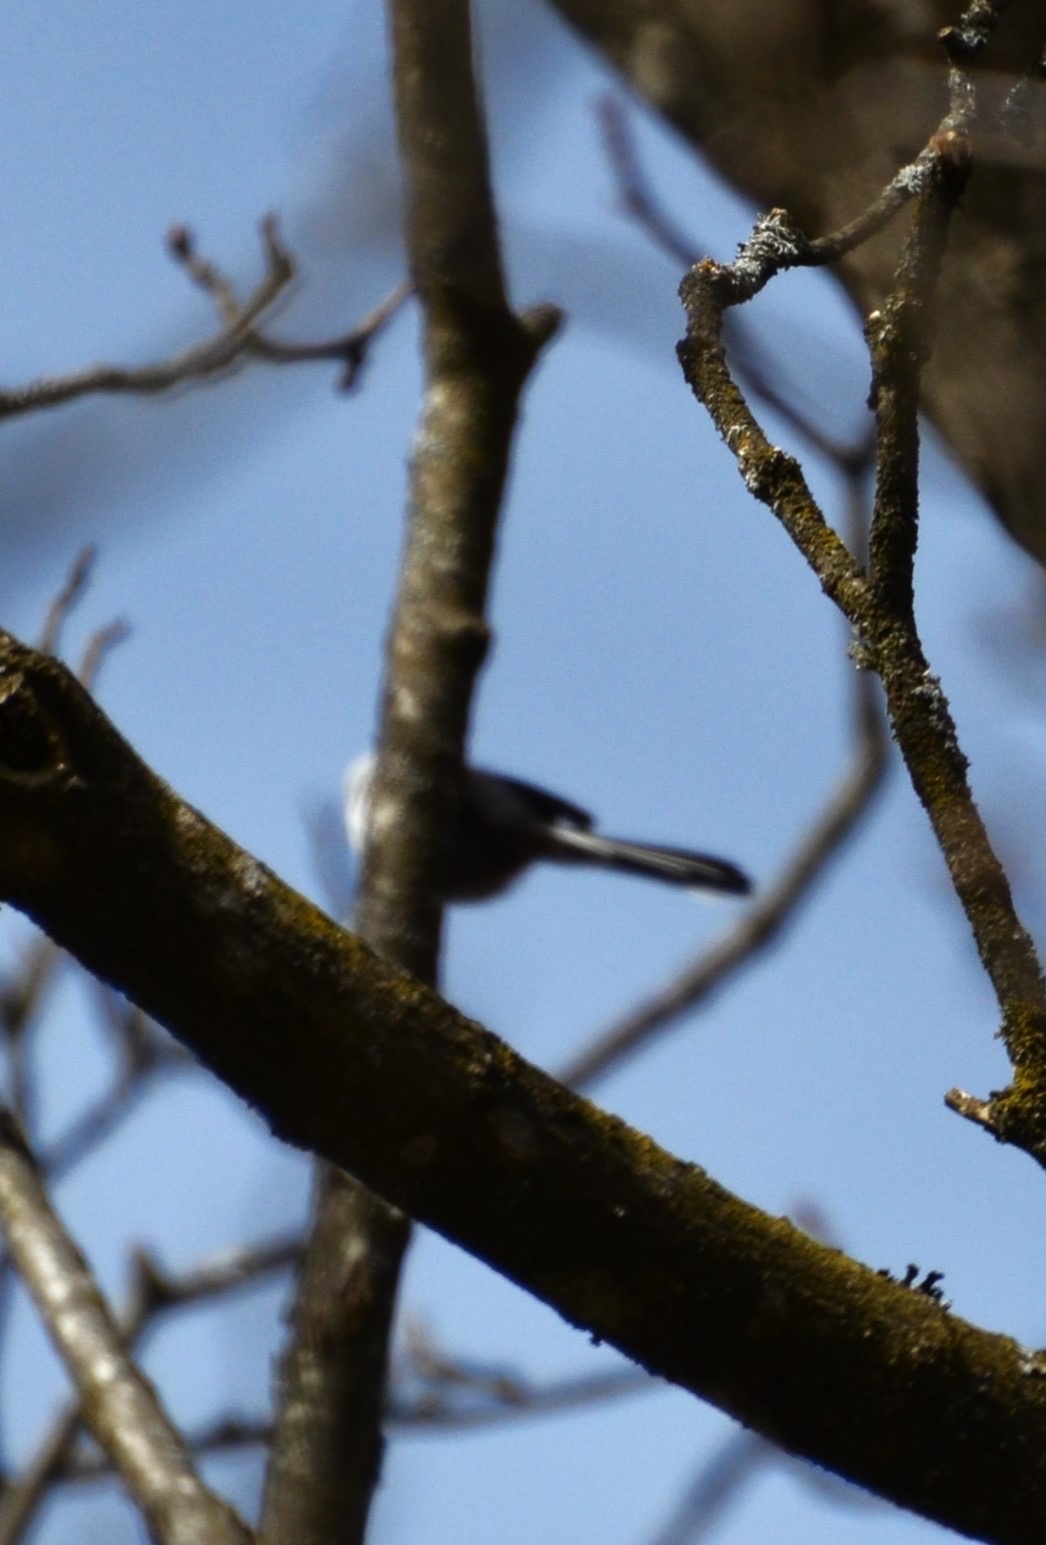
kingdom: Animalia
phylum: Chordata
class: Aves
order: Passeriformes
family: Aegithalidae
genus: Aegithalos
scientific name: Aegithalos caudatus
